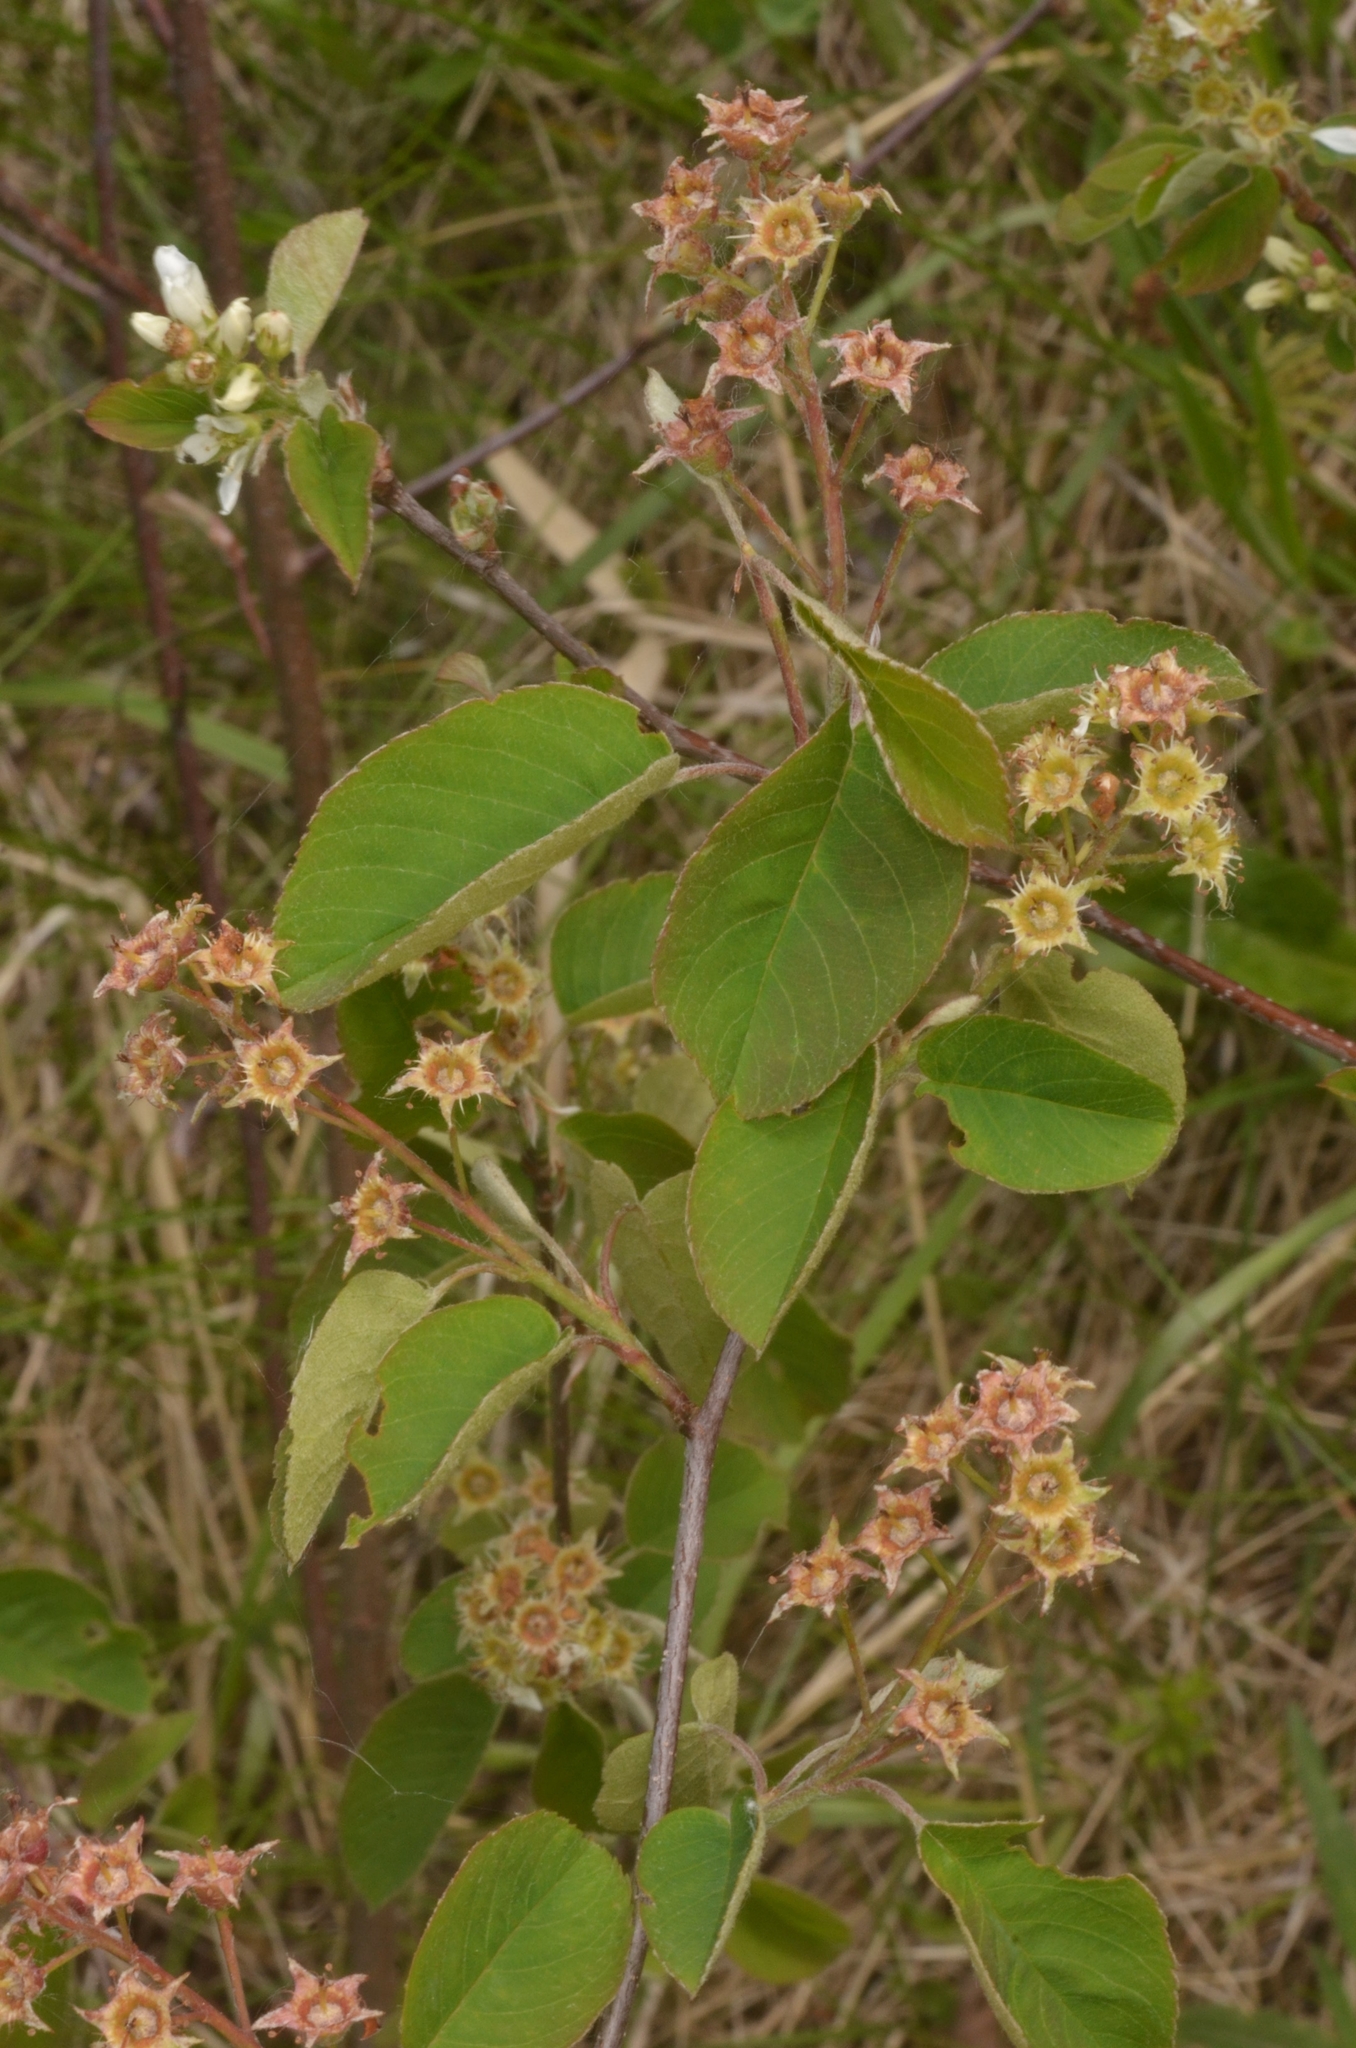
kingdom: Plantae
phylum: Tracheophyta
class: Magnoliopsida
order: Rosales
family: Rosaceae
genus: Amelanchier
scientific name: Amelanchier
